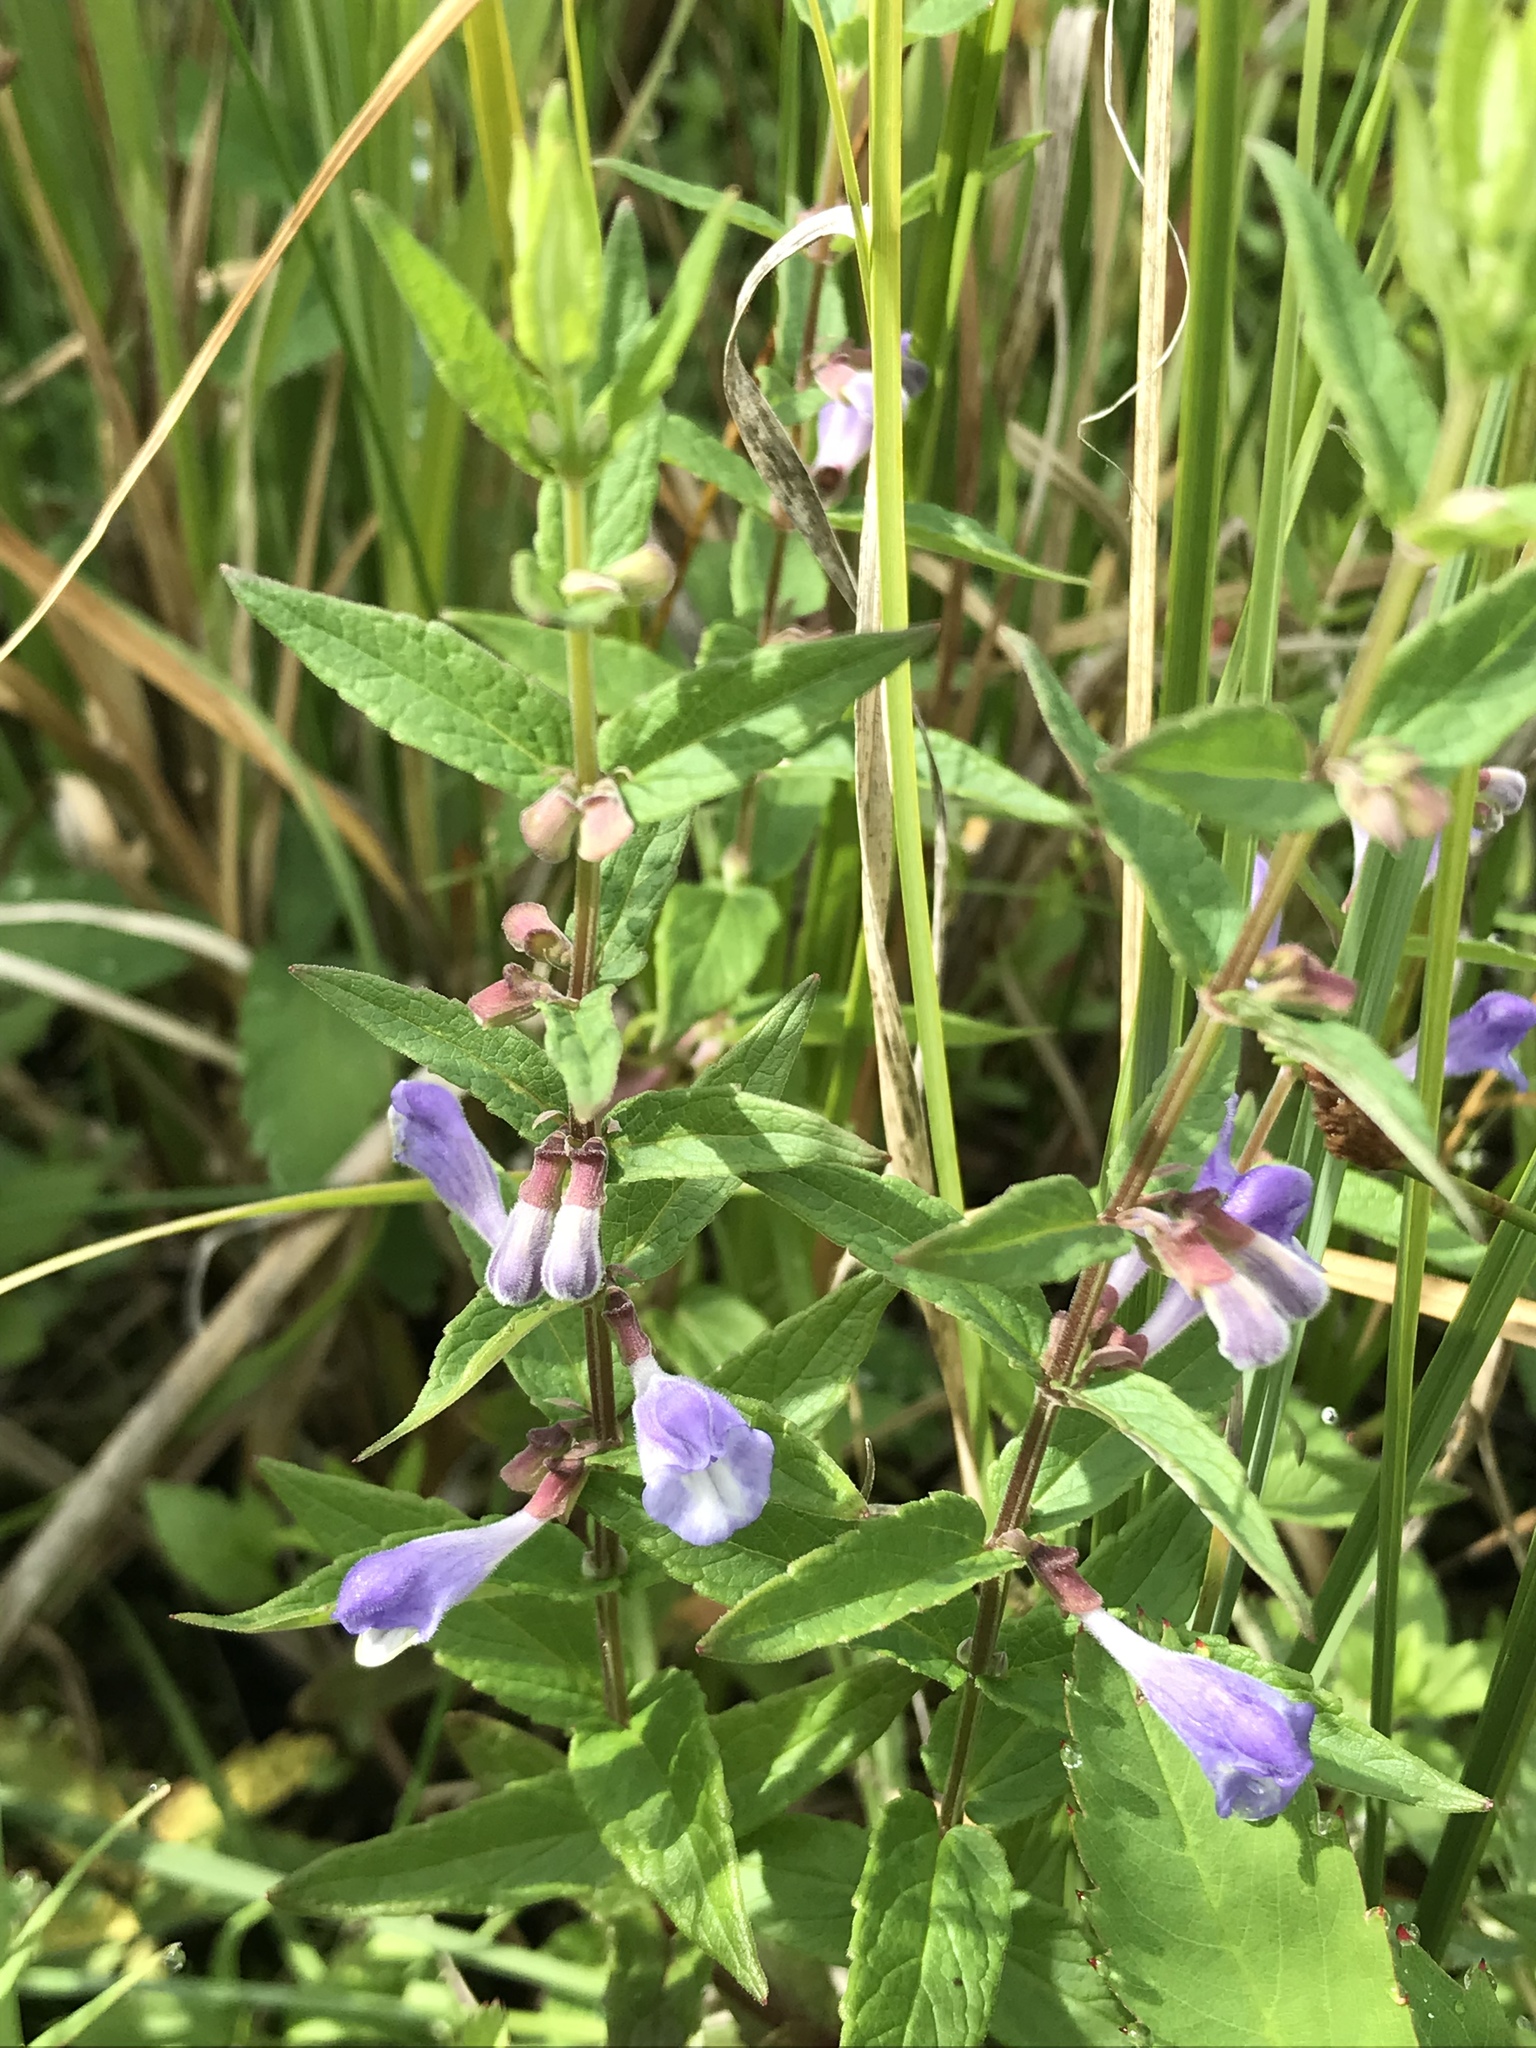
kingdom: Plantae
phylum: Tracheophyta
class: Magnoliopsida
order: Lamiales
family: Lamiaceae
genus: Scutellaria
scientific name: Scutellaria galericulata
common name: Skullcap
